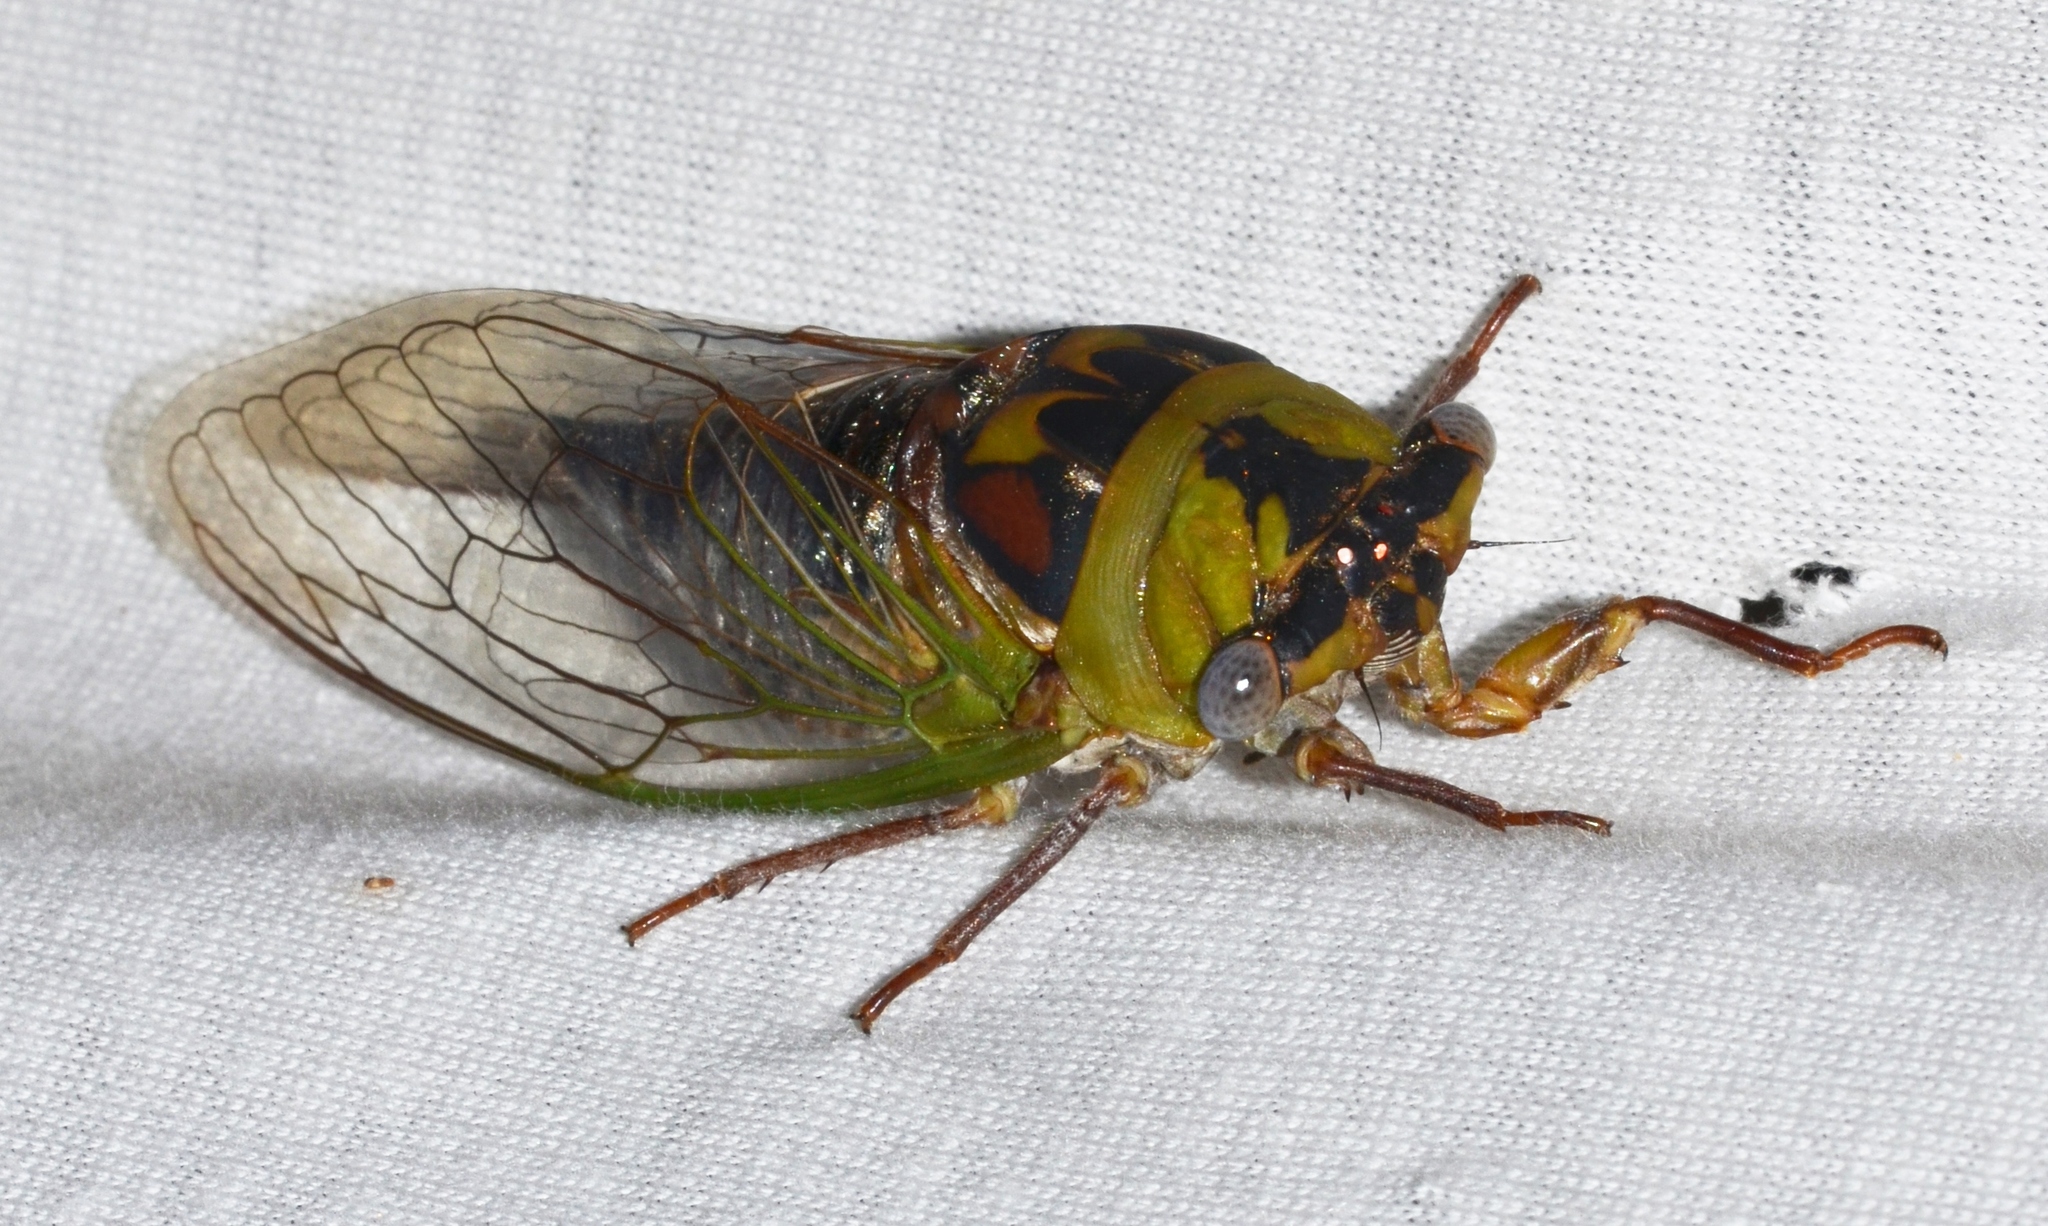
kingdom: Animalia
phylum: Arthropoda
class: Insecta
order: Hemiptera
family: Cicadidae
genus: Megatibicen
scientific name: Megatibicen pronotalis
